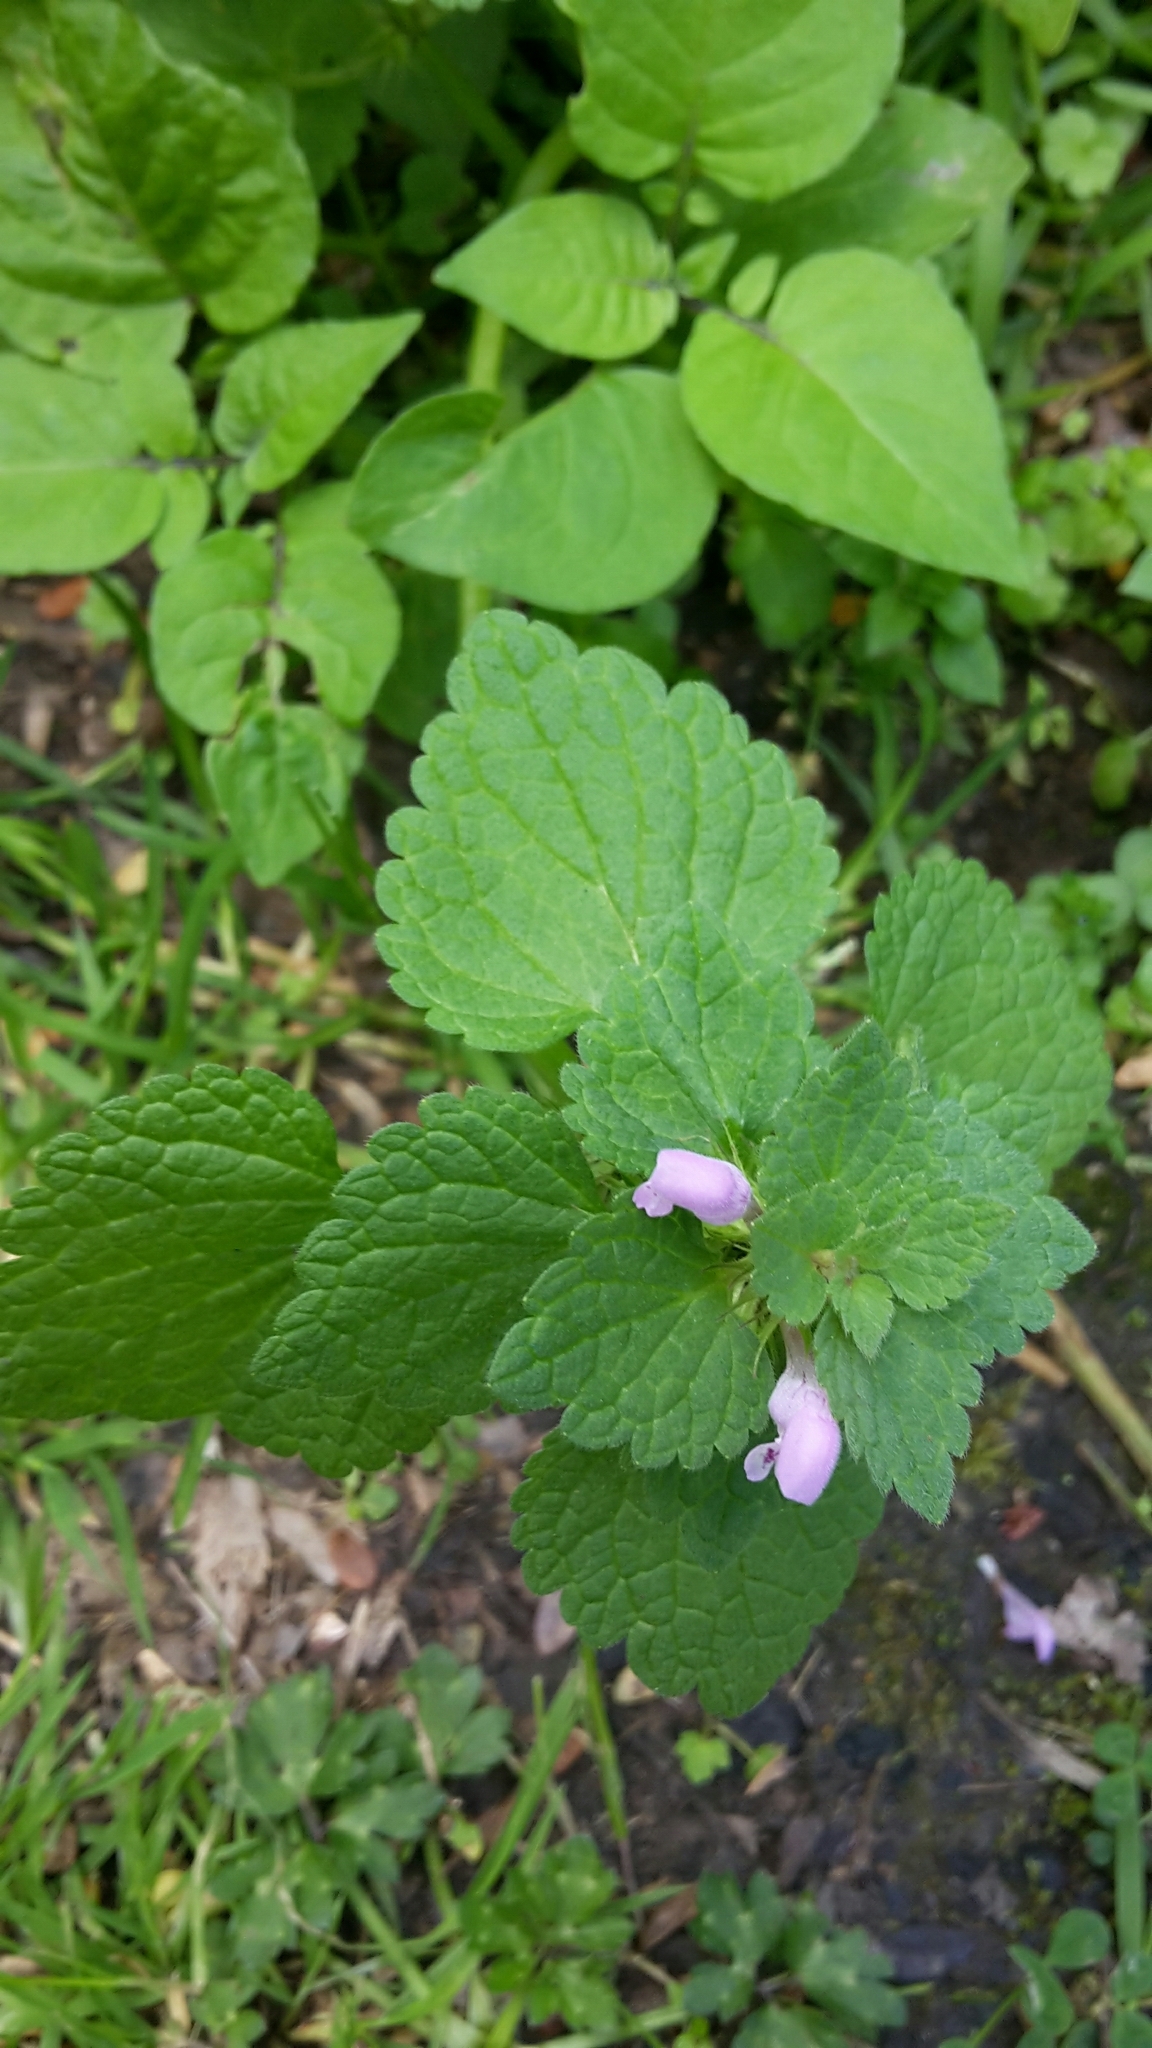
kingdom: Plantae
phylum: Tracheophyta
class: Magnoliopsida
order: Lamiales
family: Lamiaceae
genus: Lamium
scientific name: Lamium purpureum
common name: Red dead-nettle
